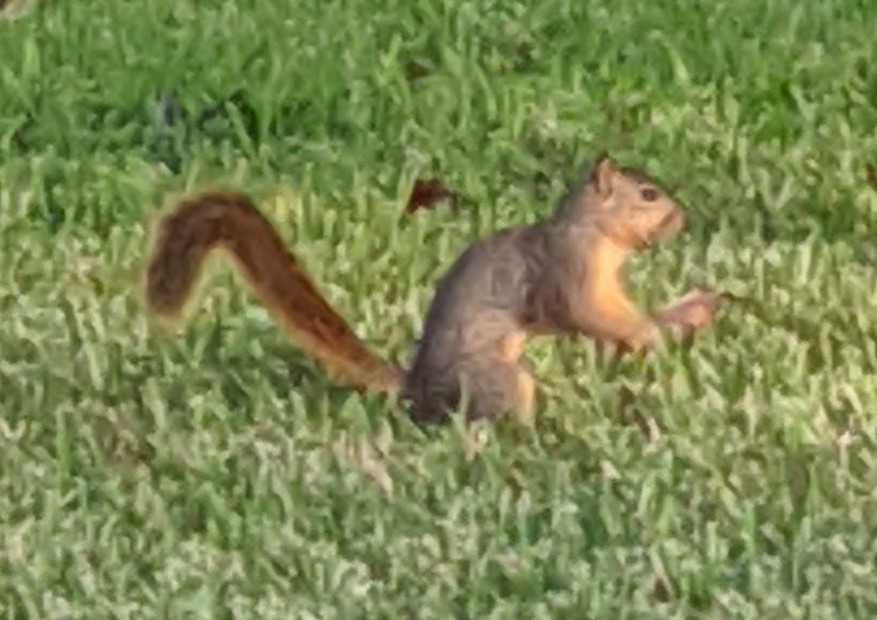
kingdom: Animalia
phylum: Chordata
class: Mammalia
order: Rodentia
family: Sciuridae
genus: Sciurus
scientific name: Sciurus niger
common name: Fox squirrel
